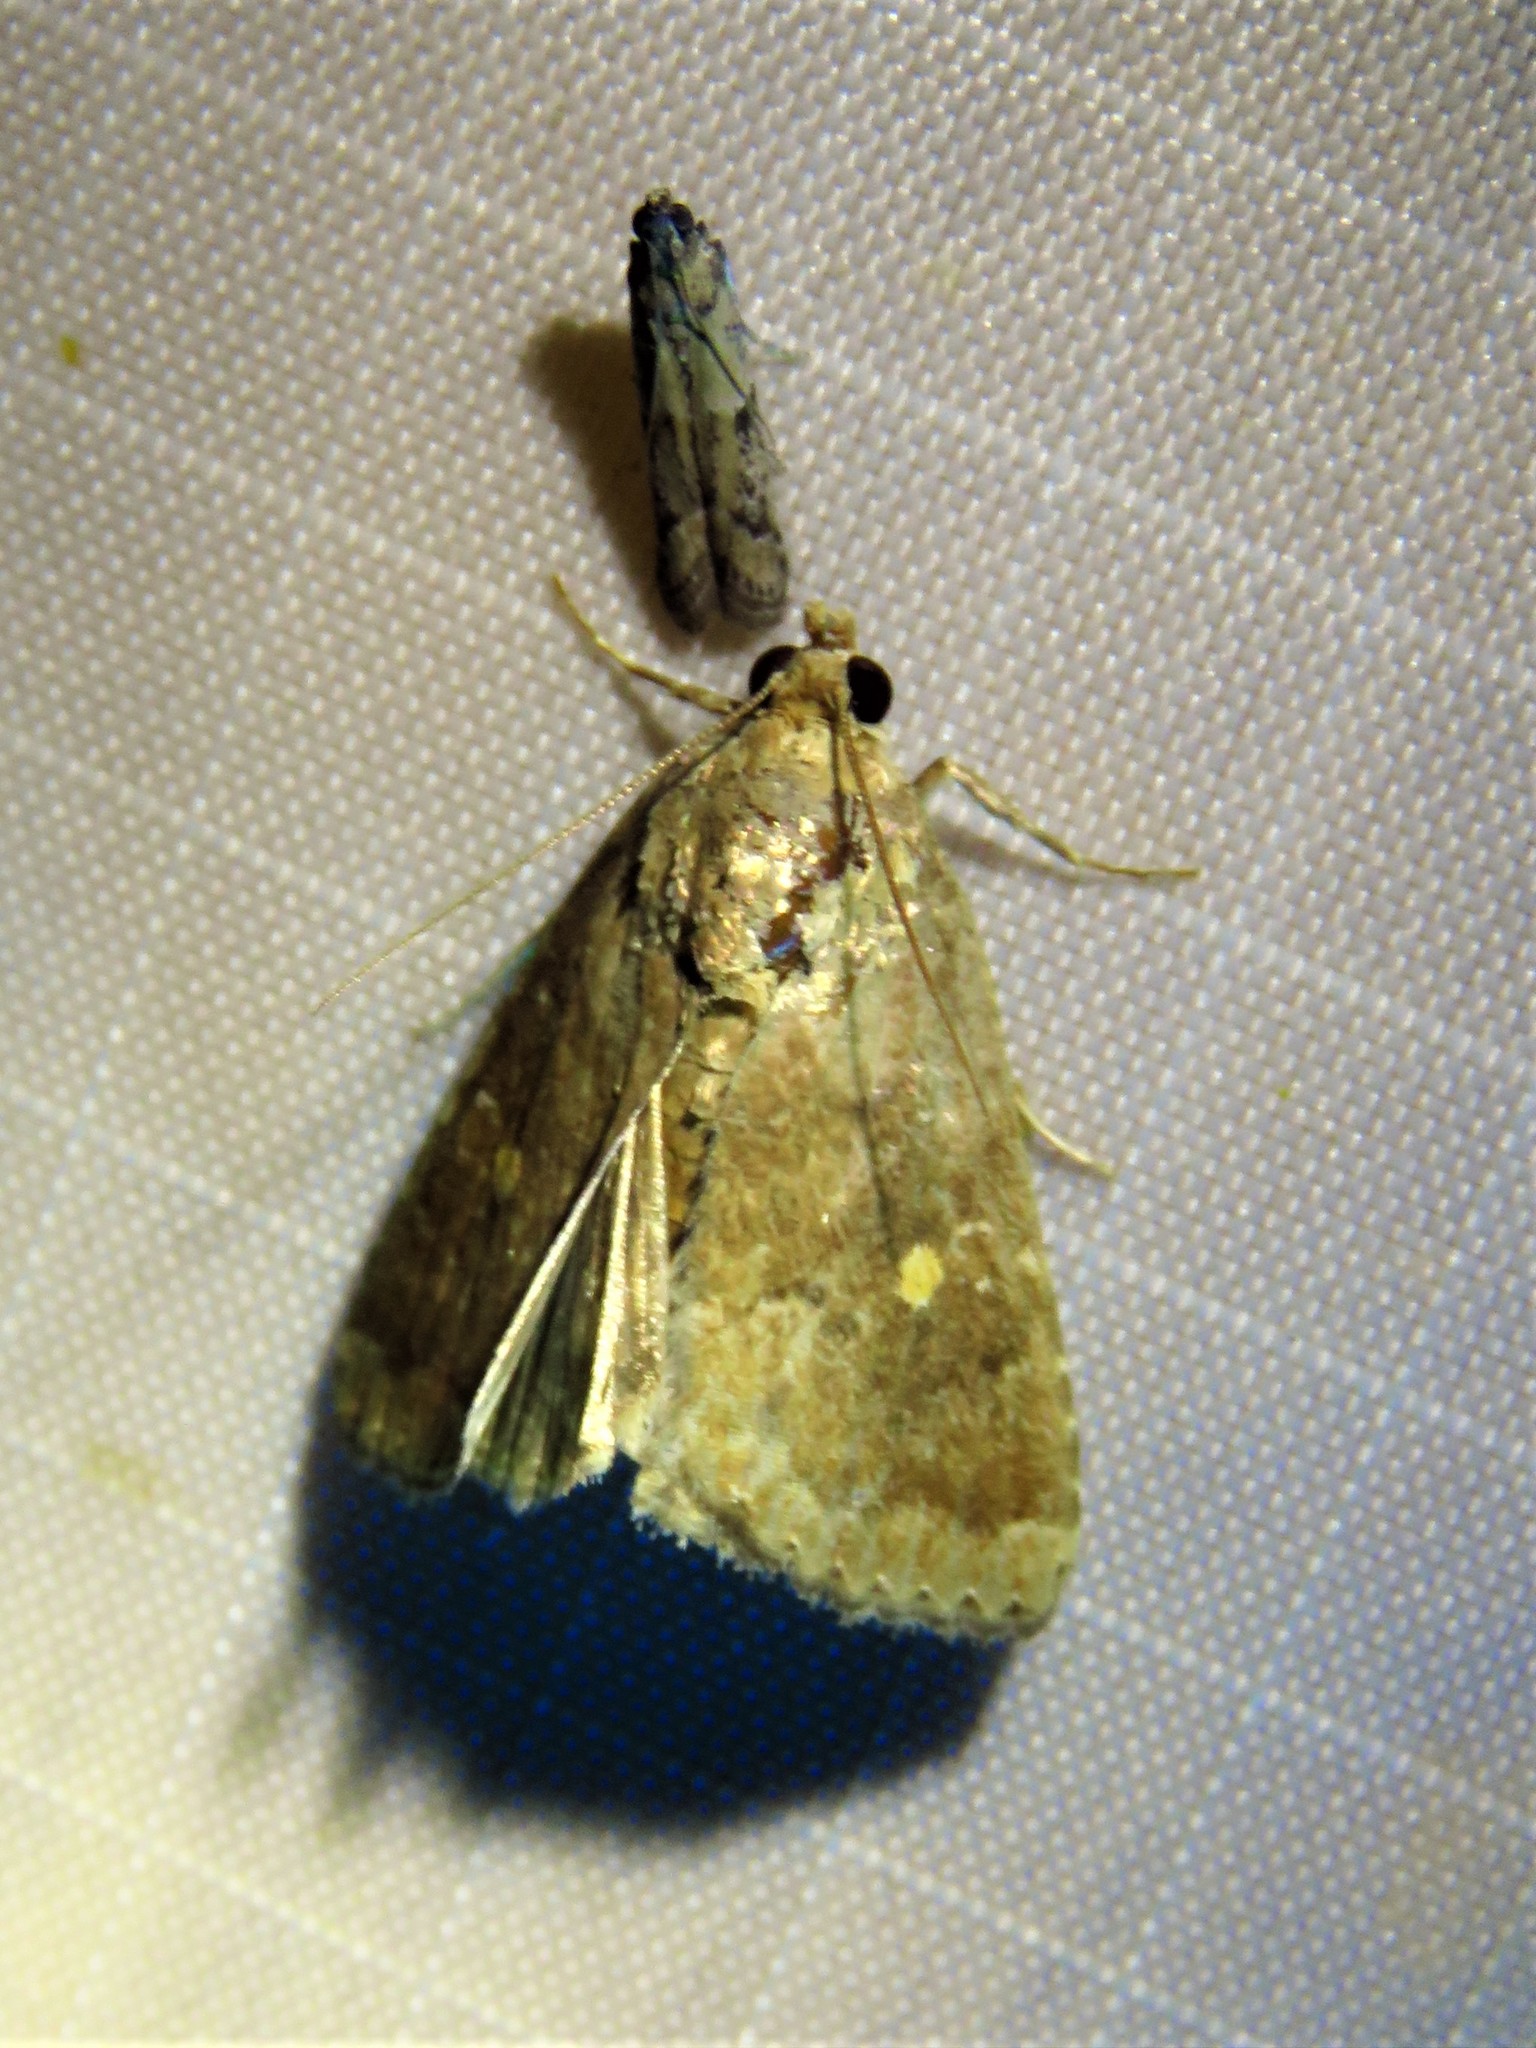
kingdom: Animalia
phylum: Arthropoda
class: Insecta
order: Lepidoptera
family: Noctuidae
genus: Amyna
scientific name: Amyna stricta
